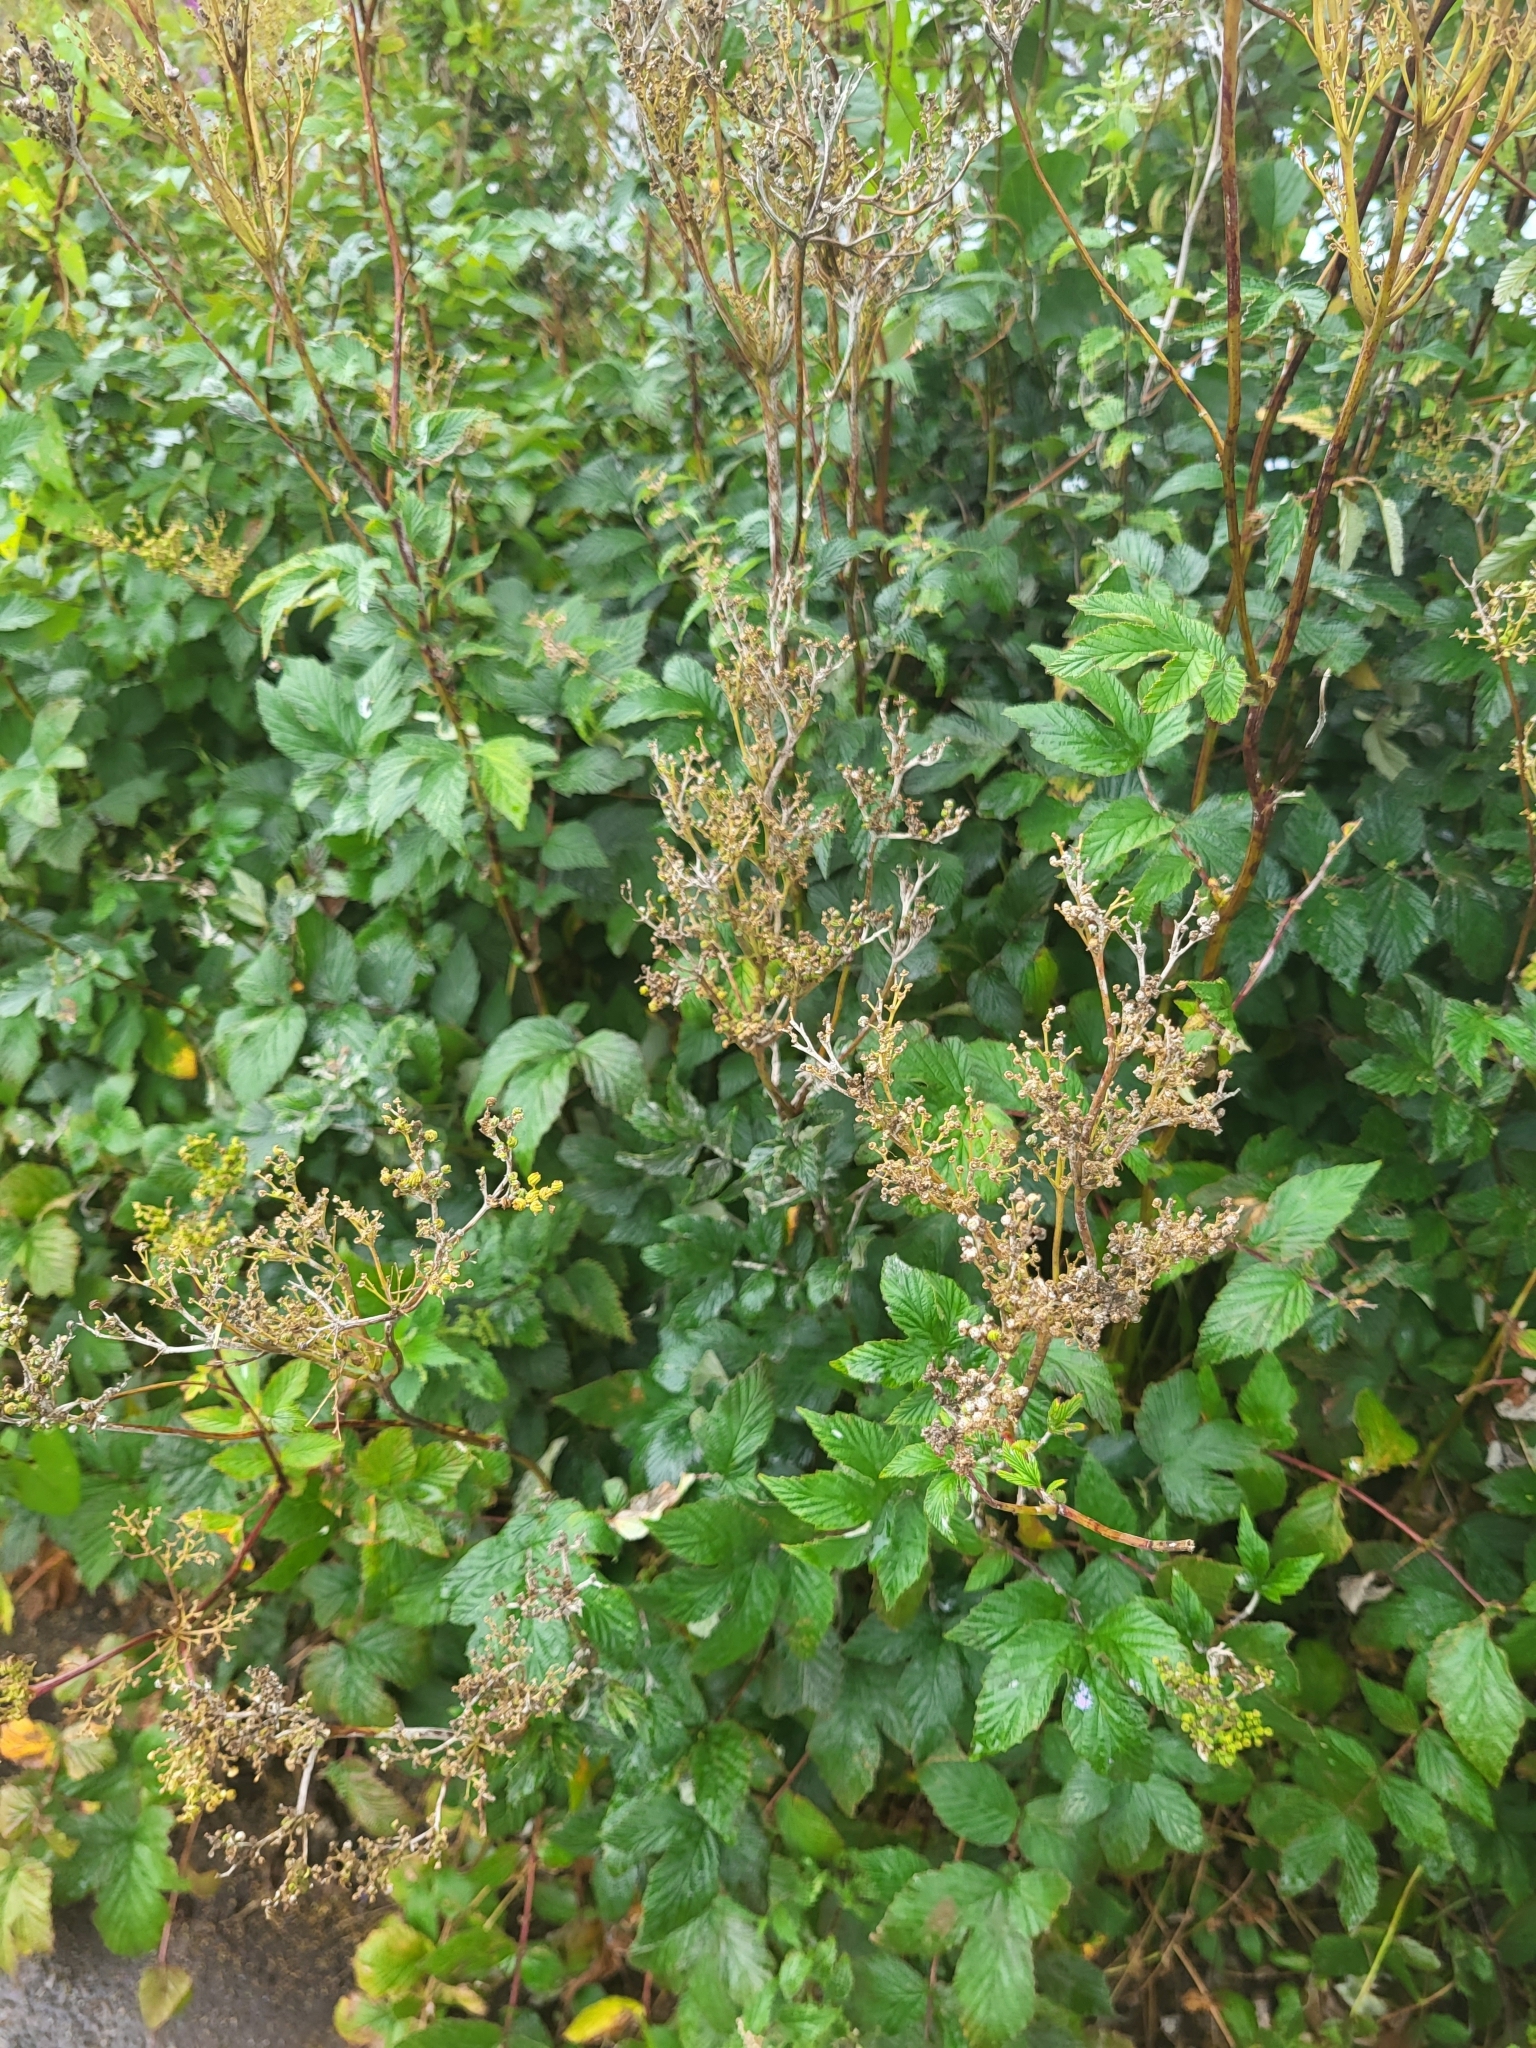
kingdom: Plantae
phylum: Tracheophyta
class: Magnoliopsida
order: Rosales
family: Rosaceae
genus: Filipendula
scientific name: Filipendula ulmaria
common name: Meadowsweet
